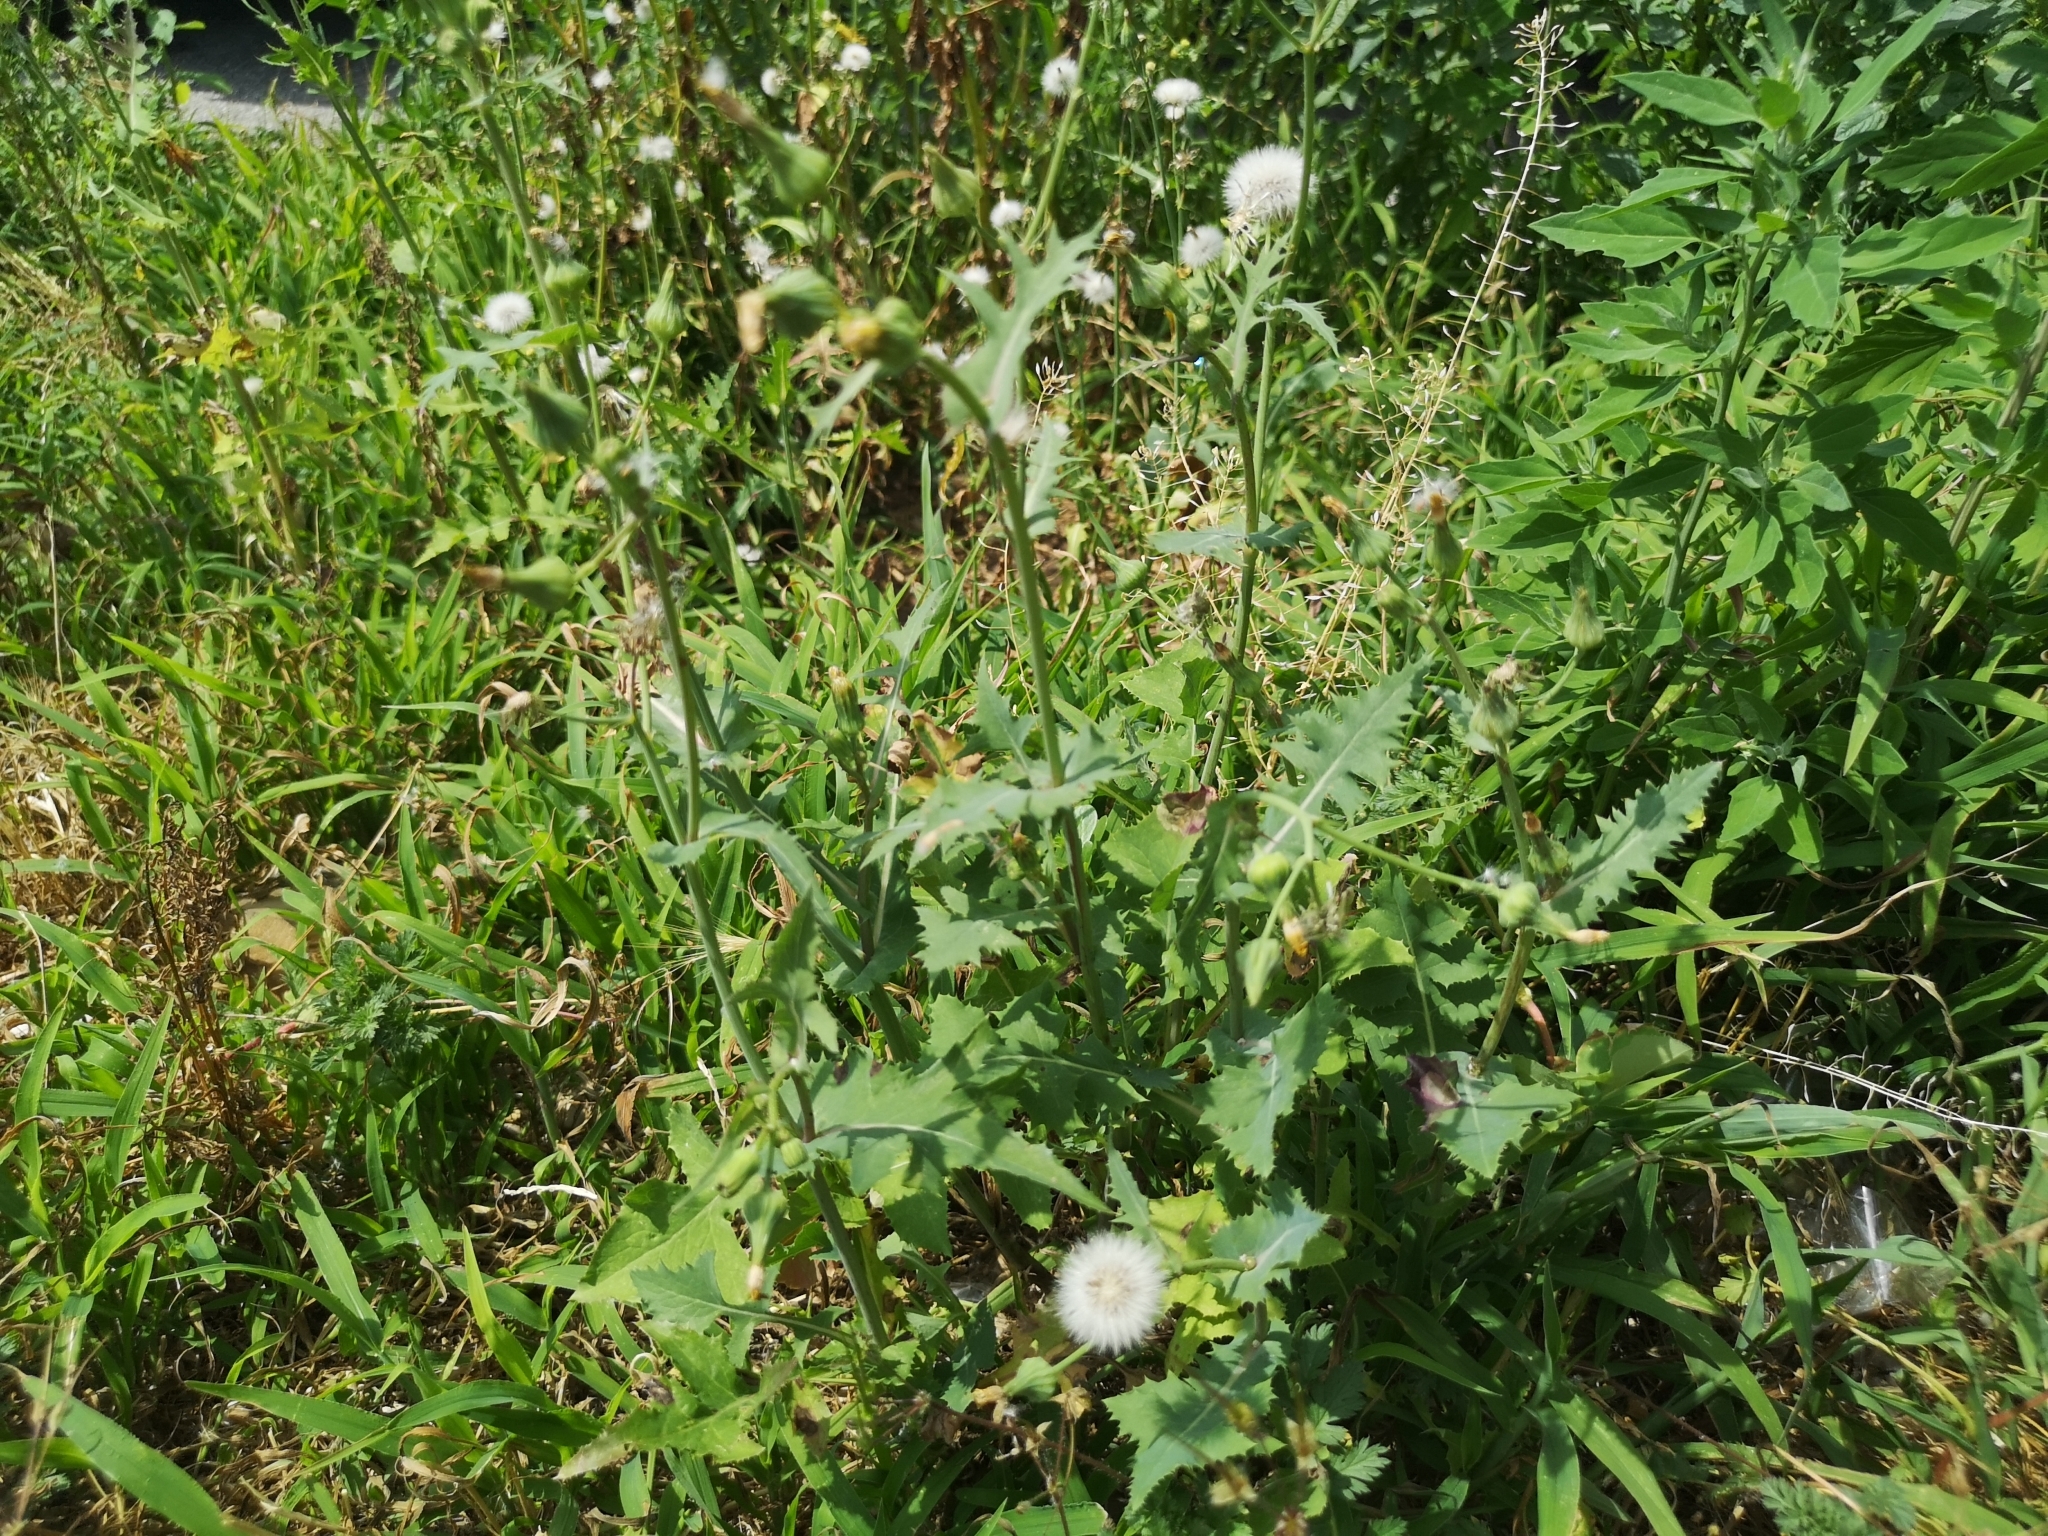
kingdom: Plantae
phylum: Tracheophyta
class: Magnoliopsida
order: Asterales
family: Asteraceae
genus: Sonchus
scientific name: Sonchus oleraceus
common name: Common sowthistle
